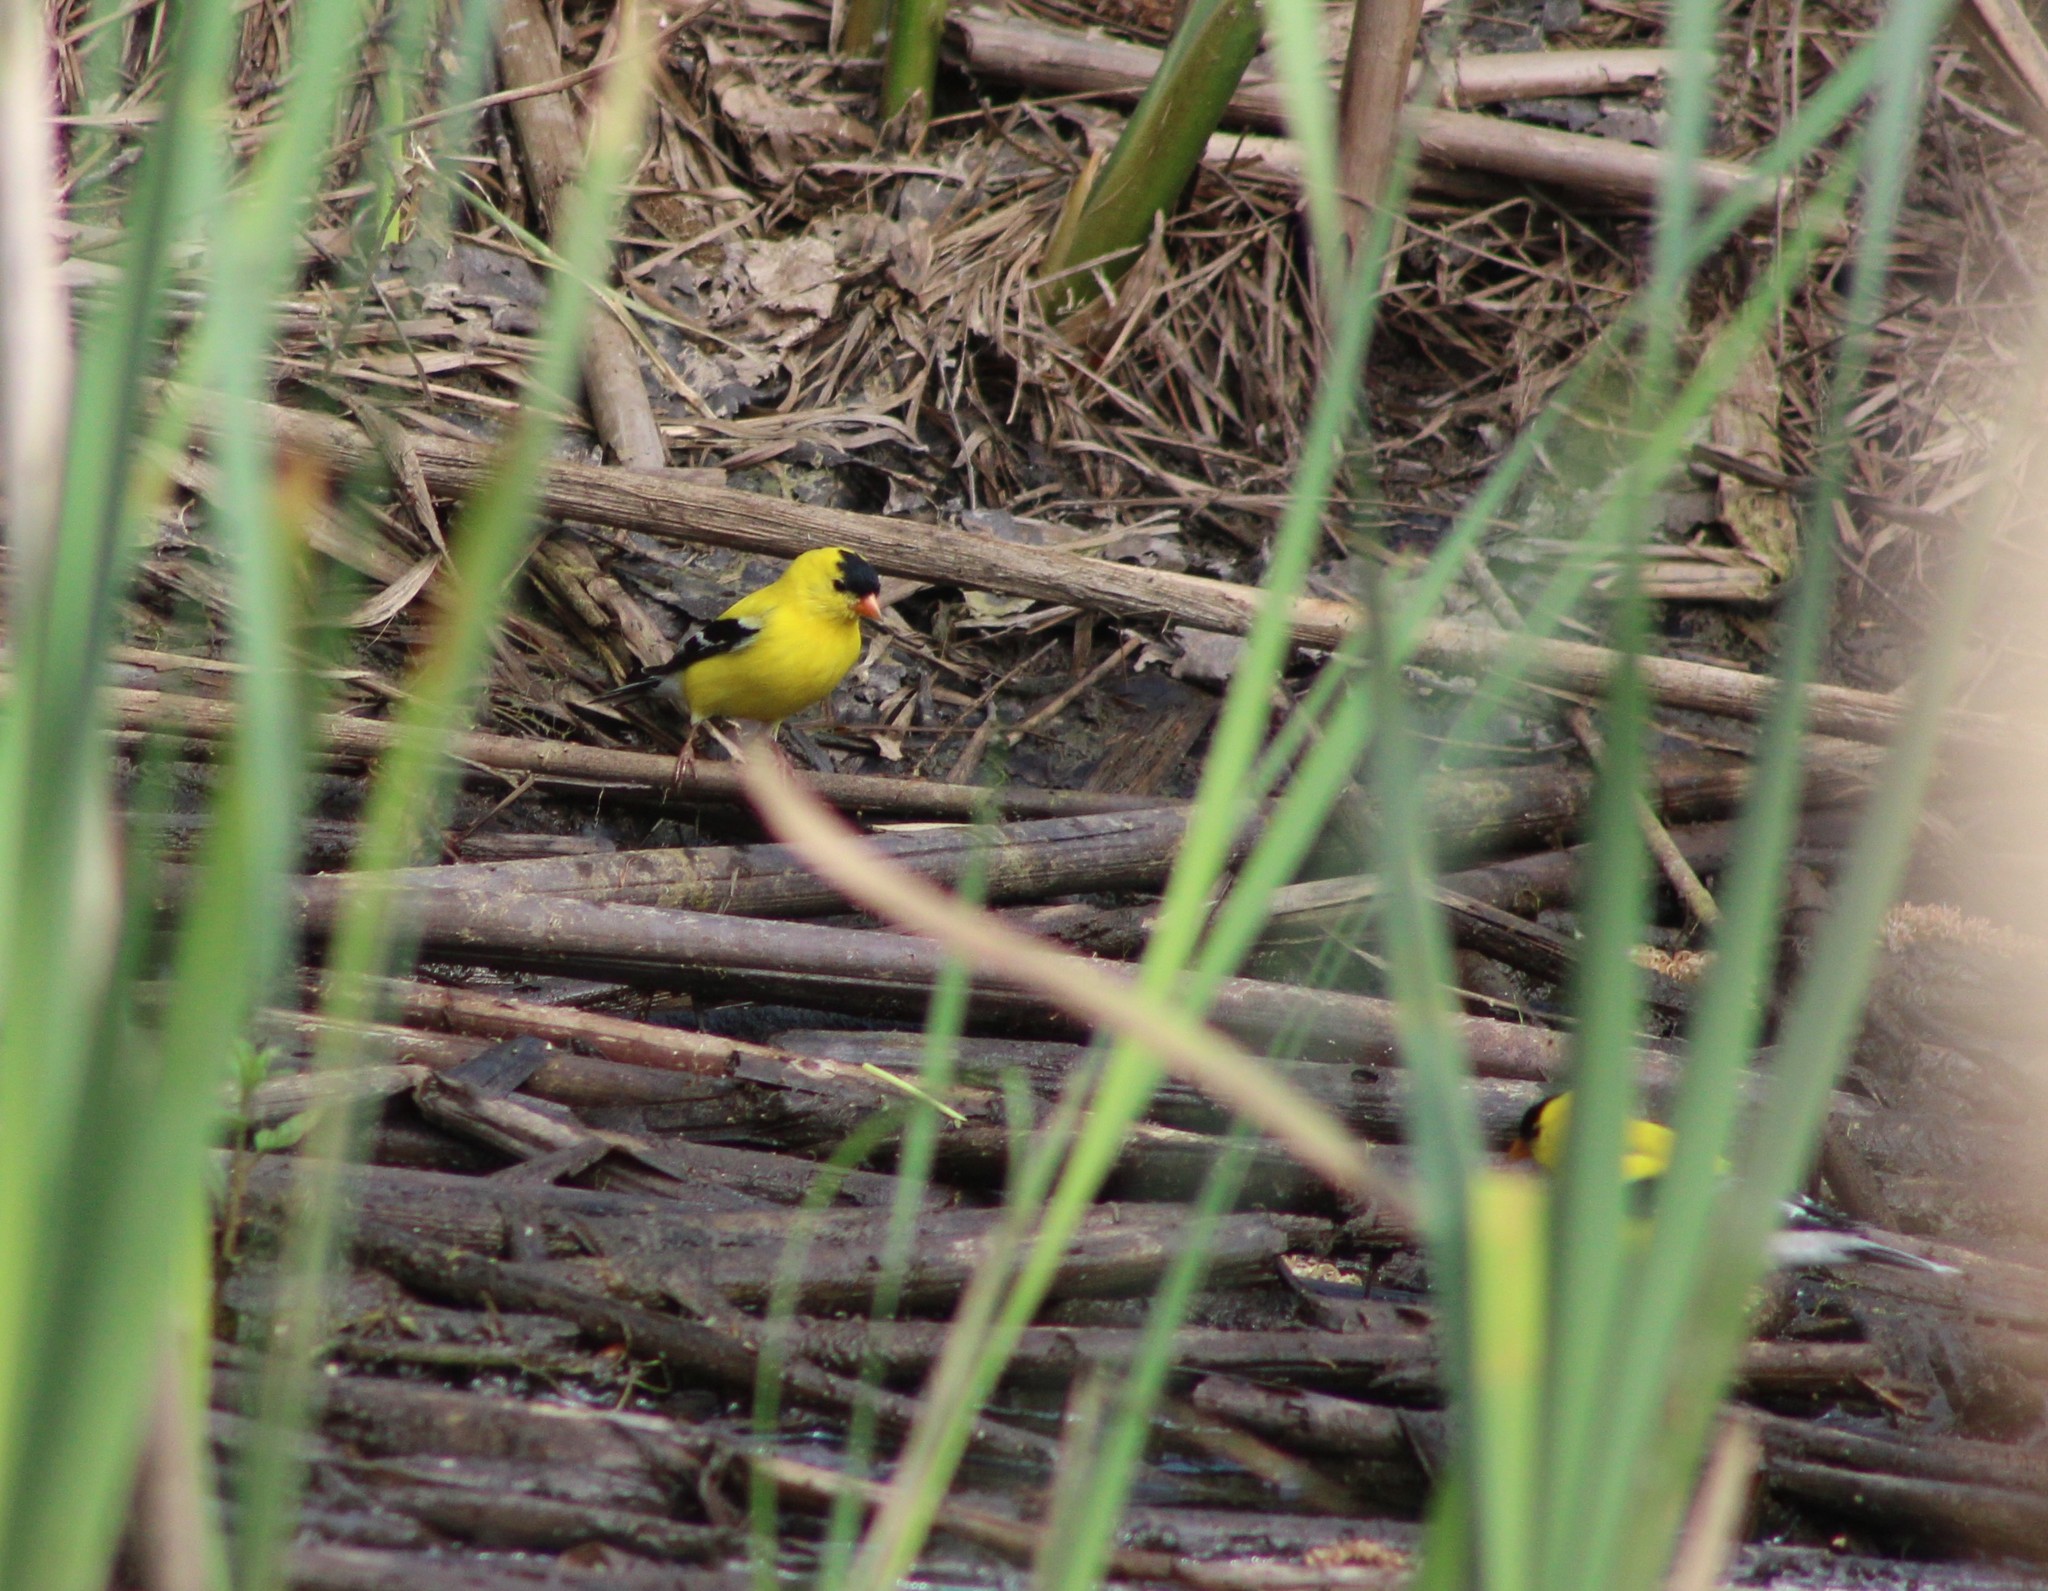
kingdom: Animalia
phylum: Chordata
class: Aves
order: Passeriformes
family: Fringillidae
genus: Spinus
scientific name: Spinus tristis
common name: American goldfinch
